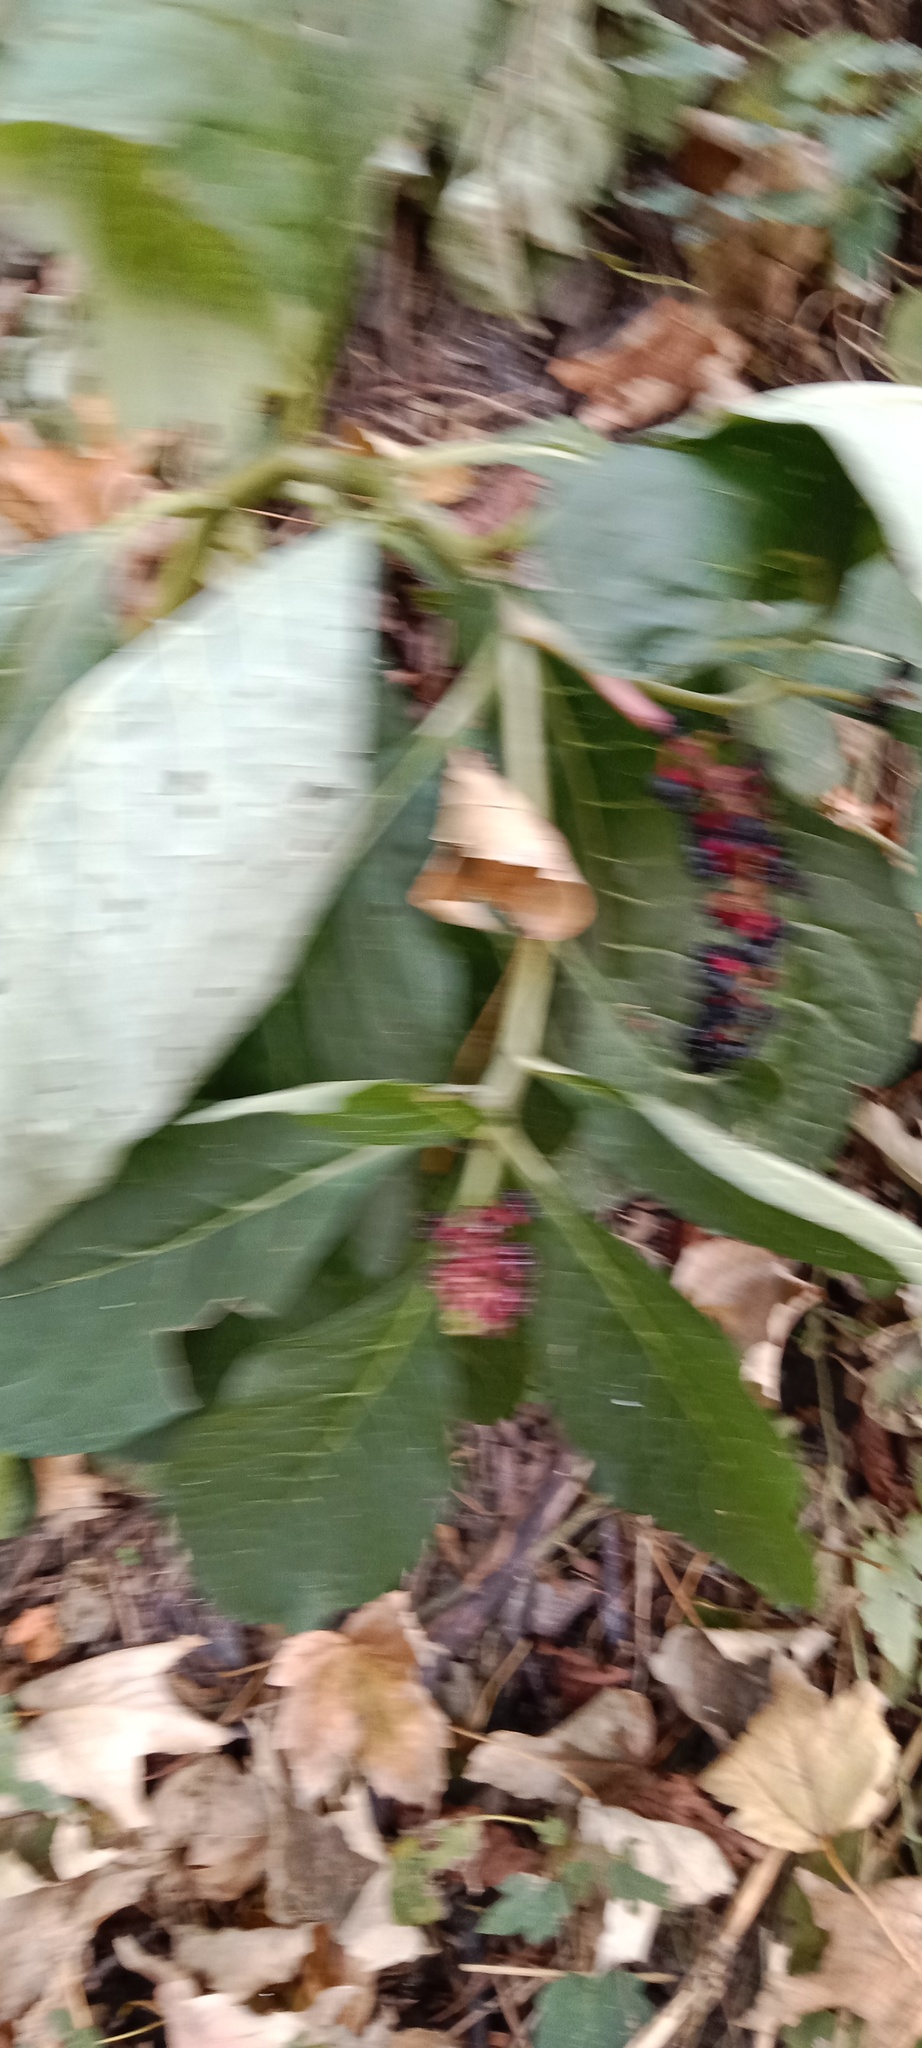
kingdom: Plantae
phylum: Tracheophyta
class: Magnoliopsida
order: Caryophyllales
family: Phytolaccaceae
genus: Phytolacca
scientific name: Phytolacca acinosa
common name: Indian pokeweed
